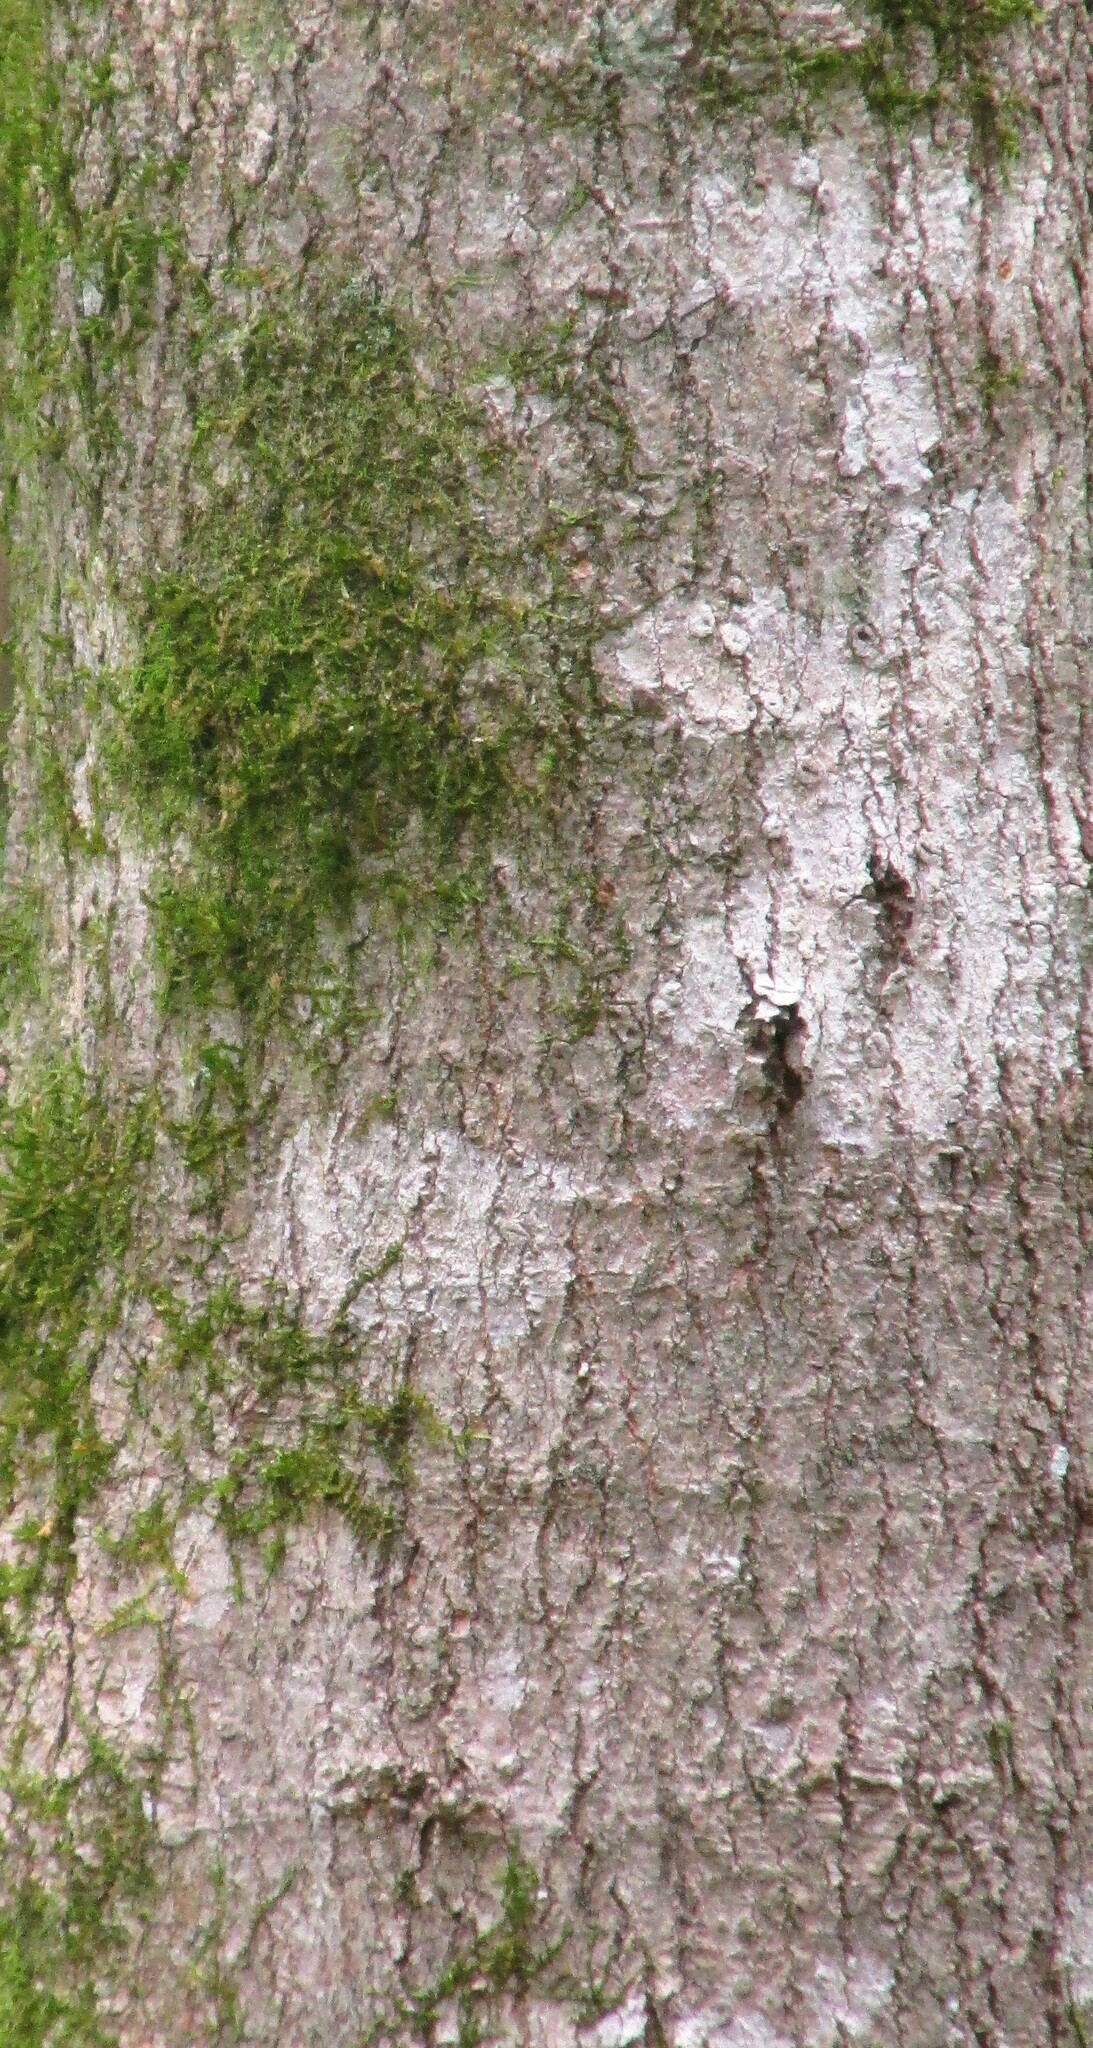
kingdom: Plantae
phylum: Tracheophyta
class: Magnoliopsida
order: Sapindales
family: Sapindaceae
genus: Acer
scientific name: Acer floridanum
